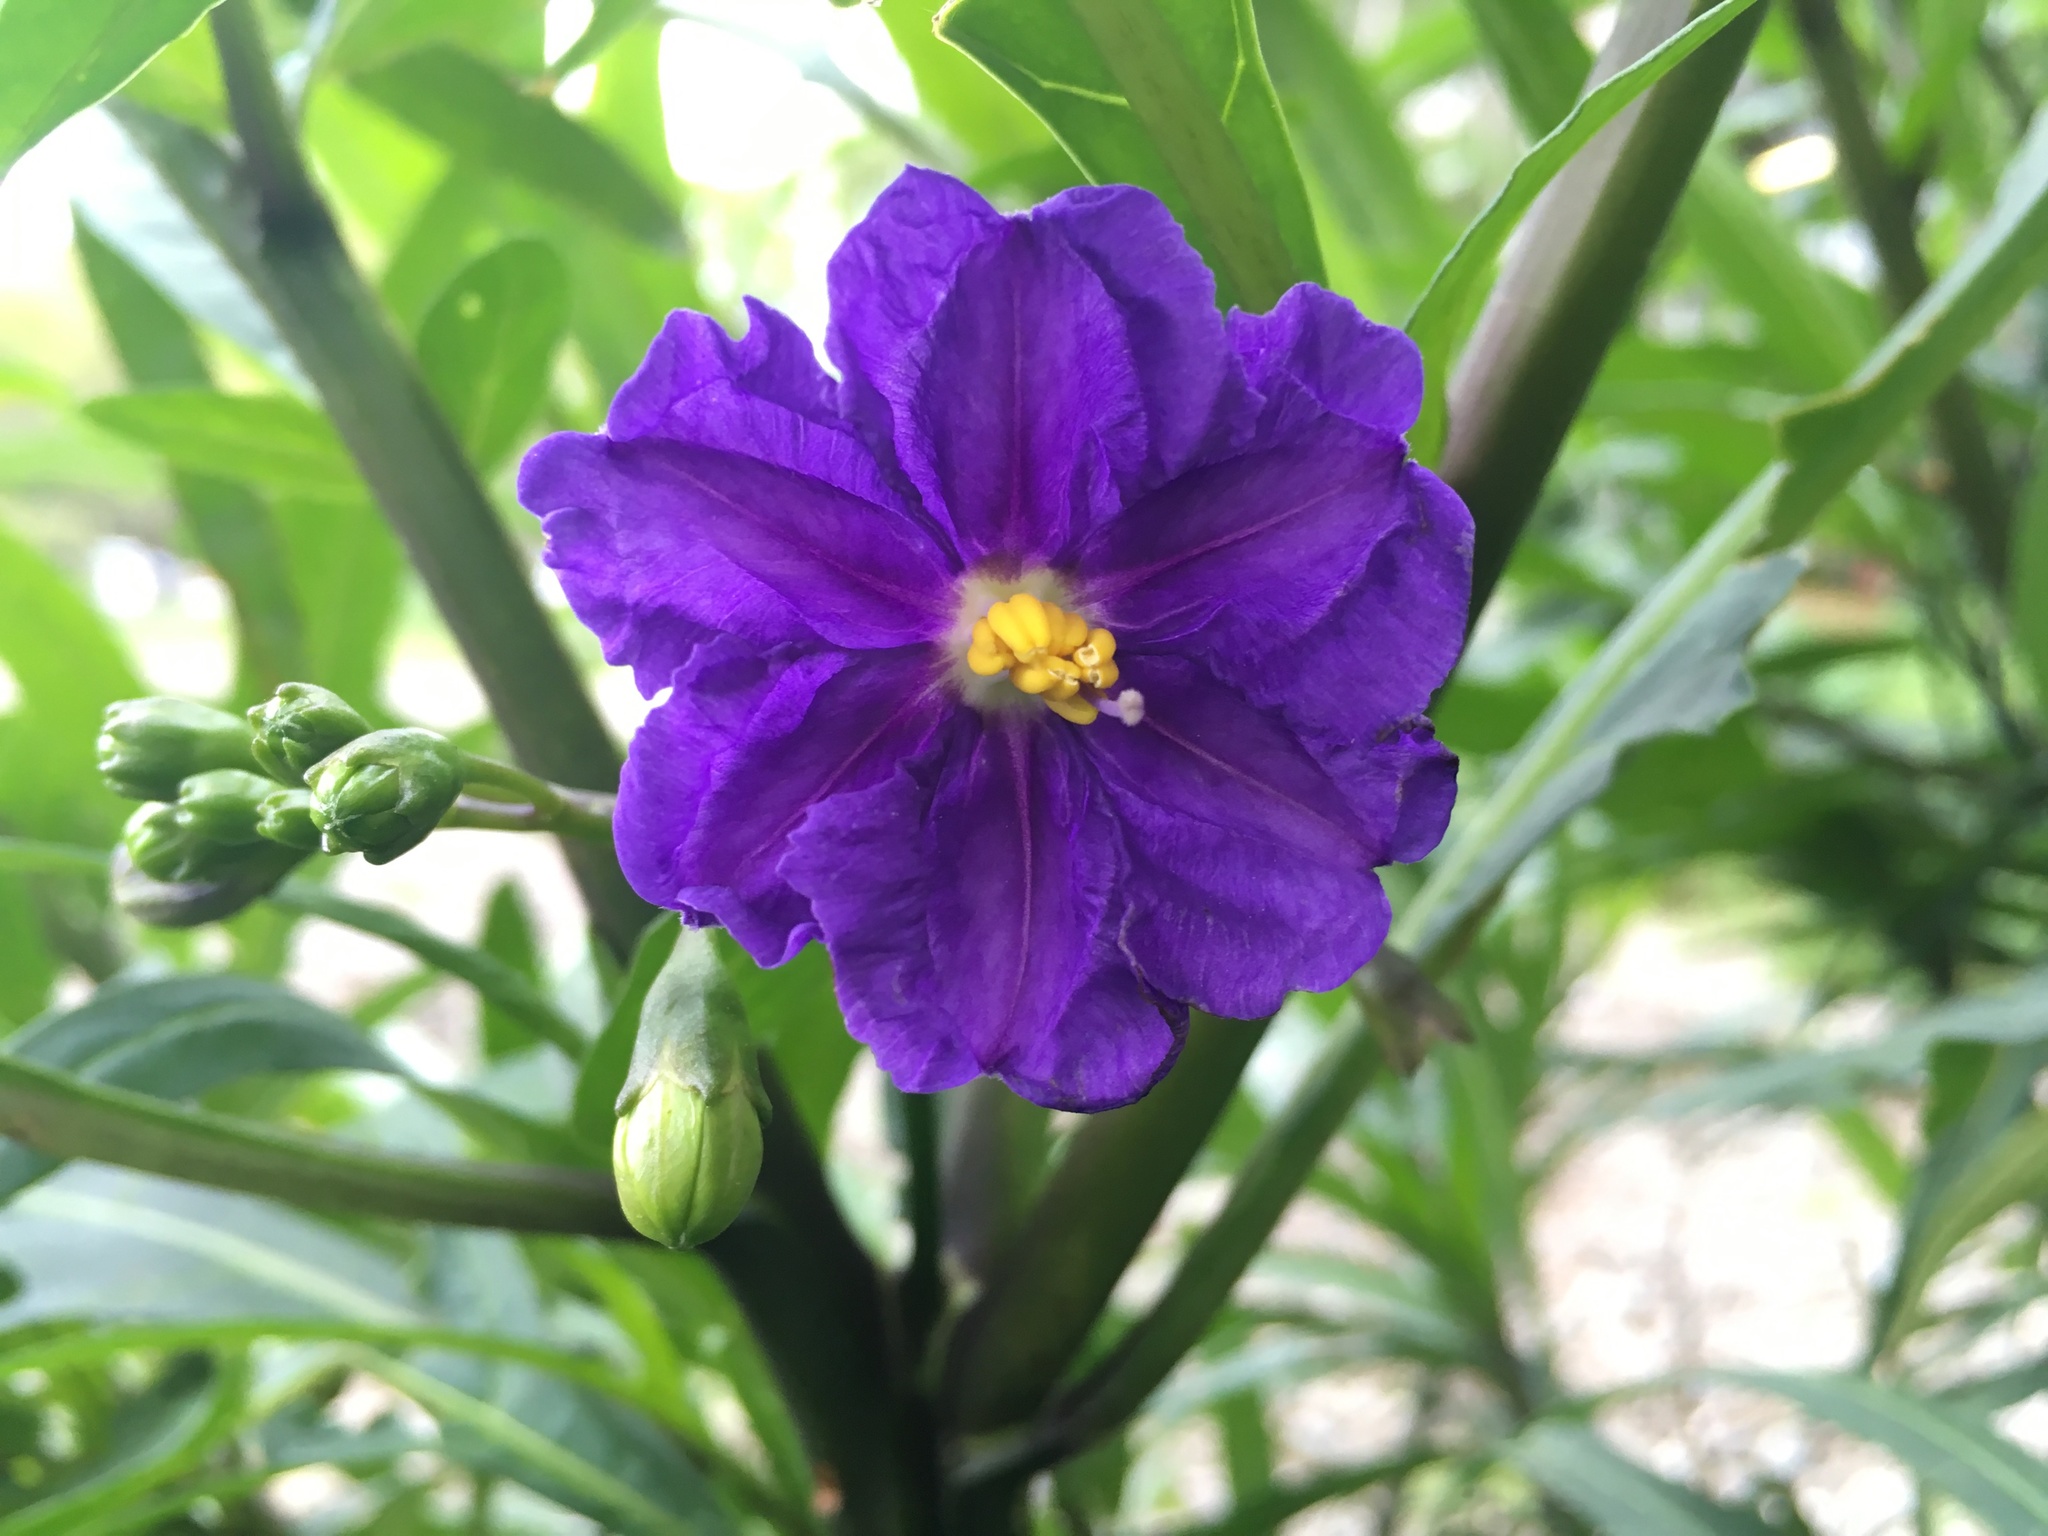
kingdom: Plantae
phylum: Tracheophyta
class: Magnoliopsida
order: Solanales
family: Solanaceae
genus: Solanum
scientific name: Solanum laciniatum
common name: Kangaroo-apple
